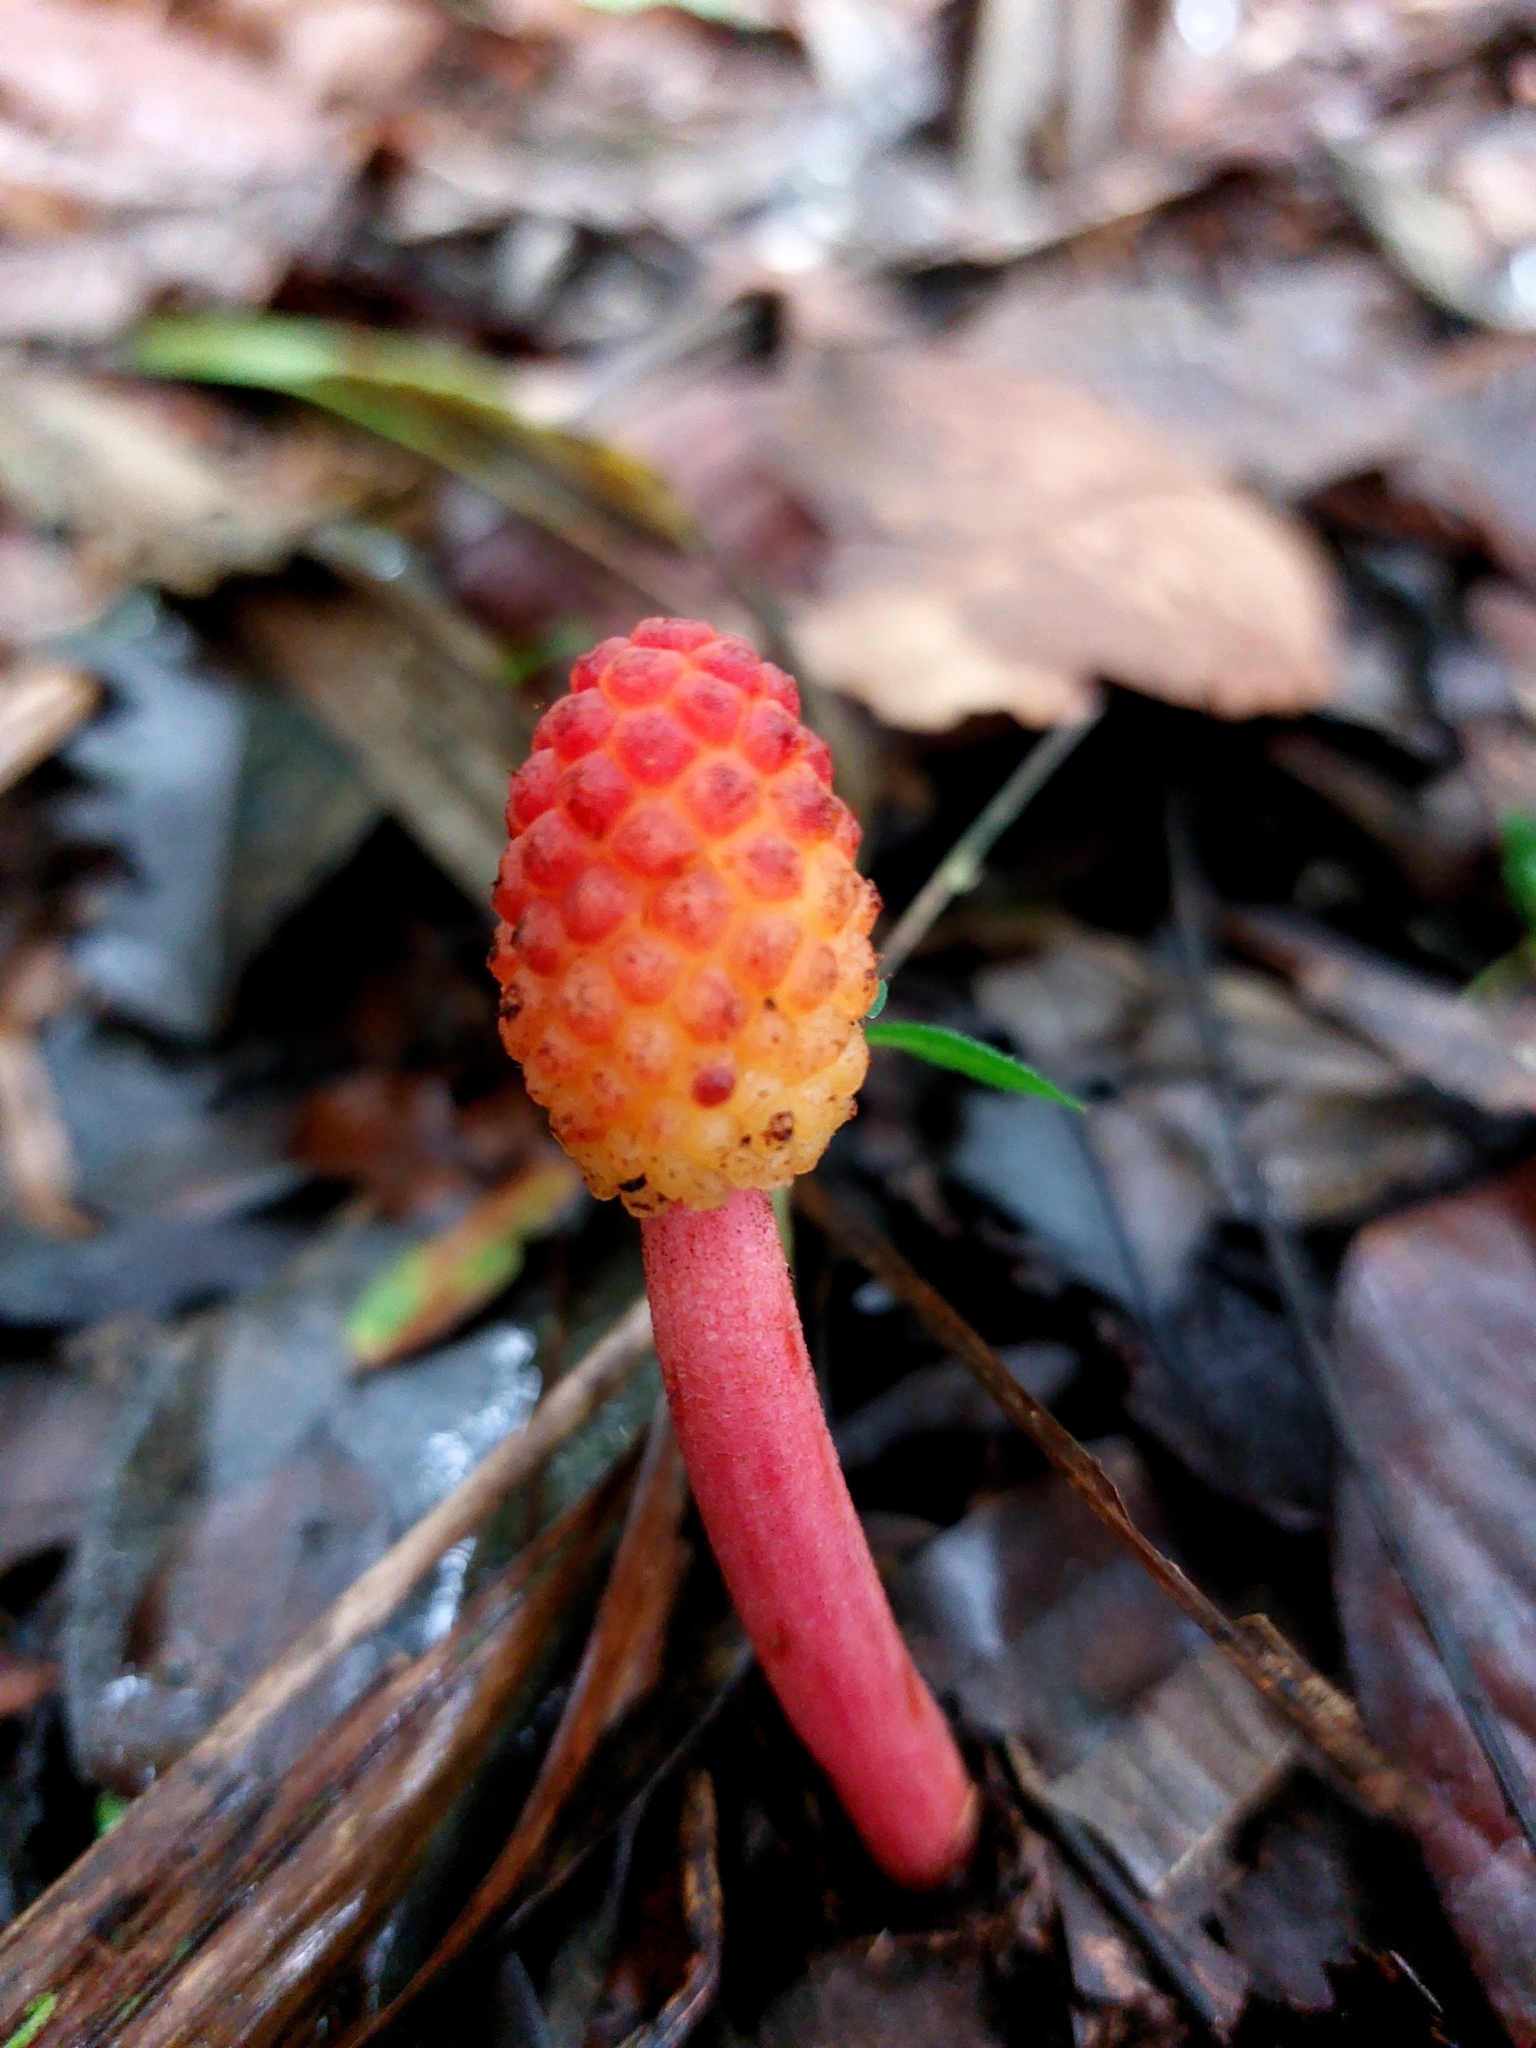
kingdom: Plantae
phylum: Tracheophyta
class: Magnoliopsida
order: Santalales
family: Balanophoraceae
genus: Helosis
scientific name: Helosis cayennensis
